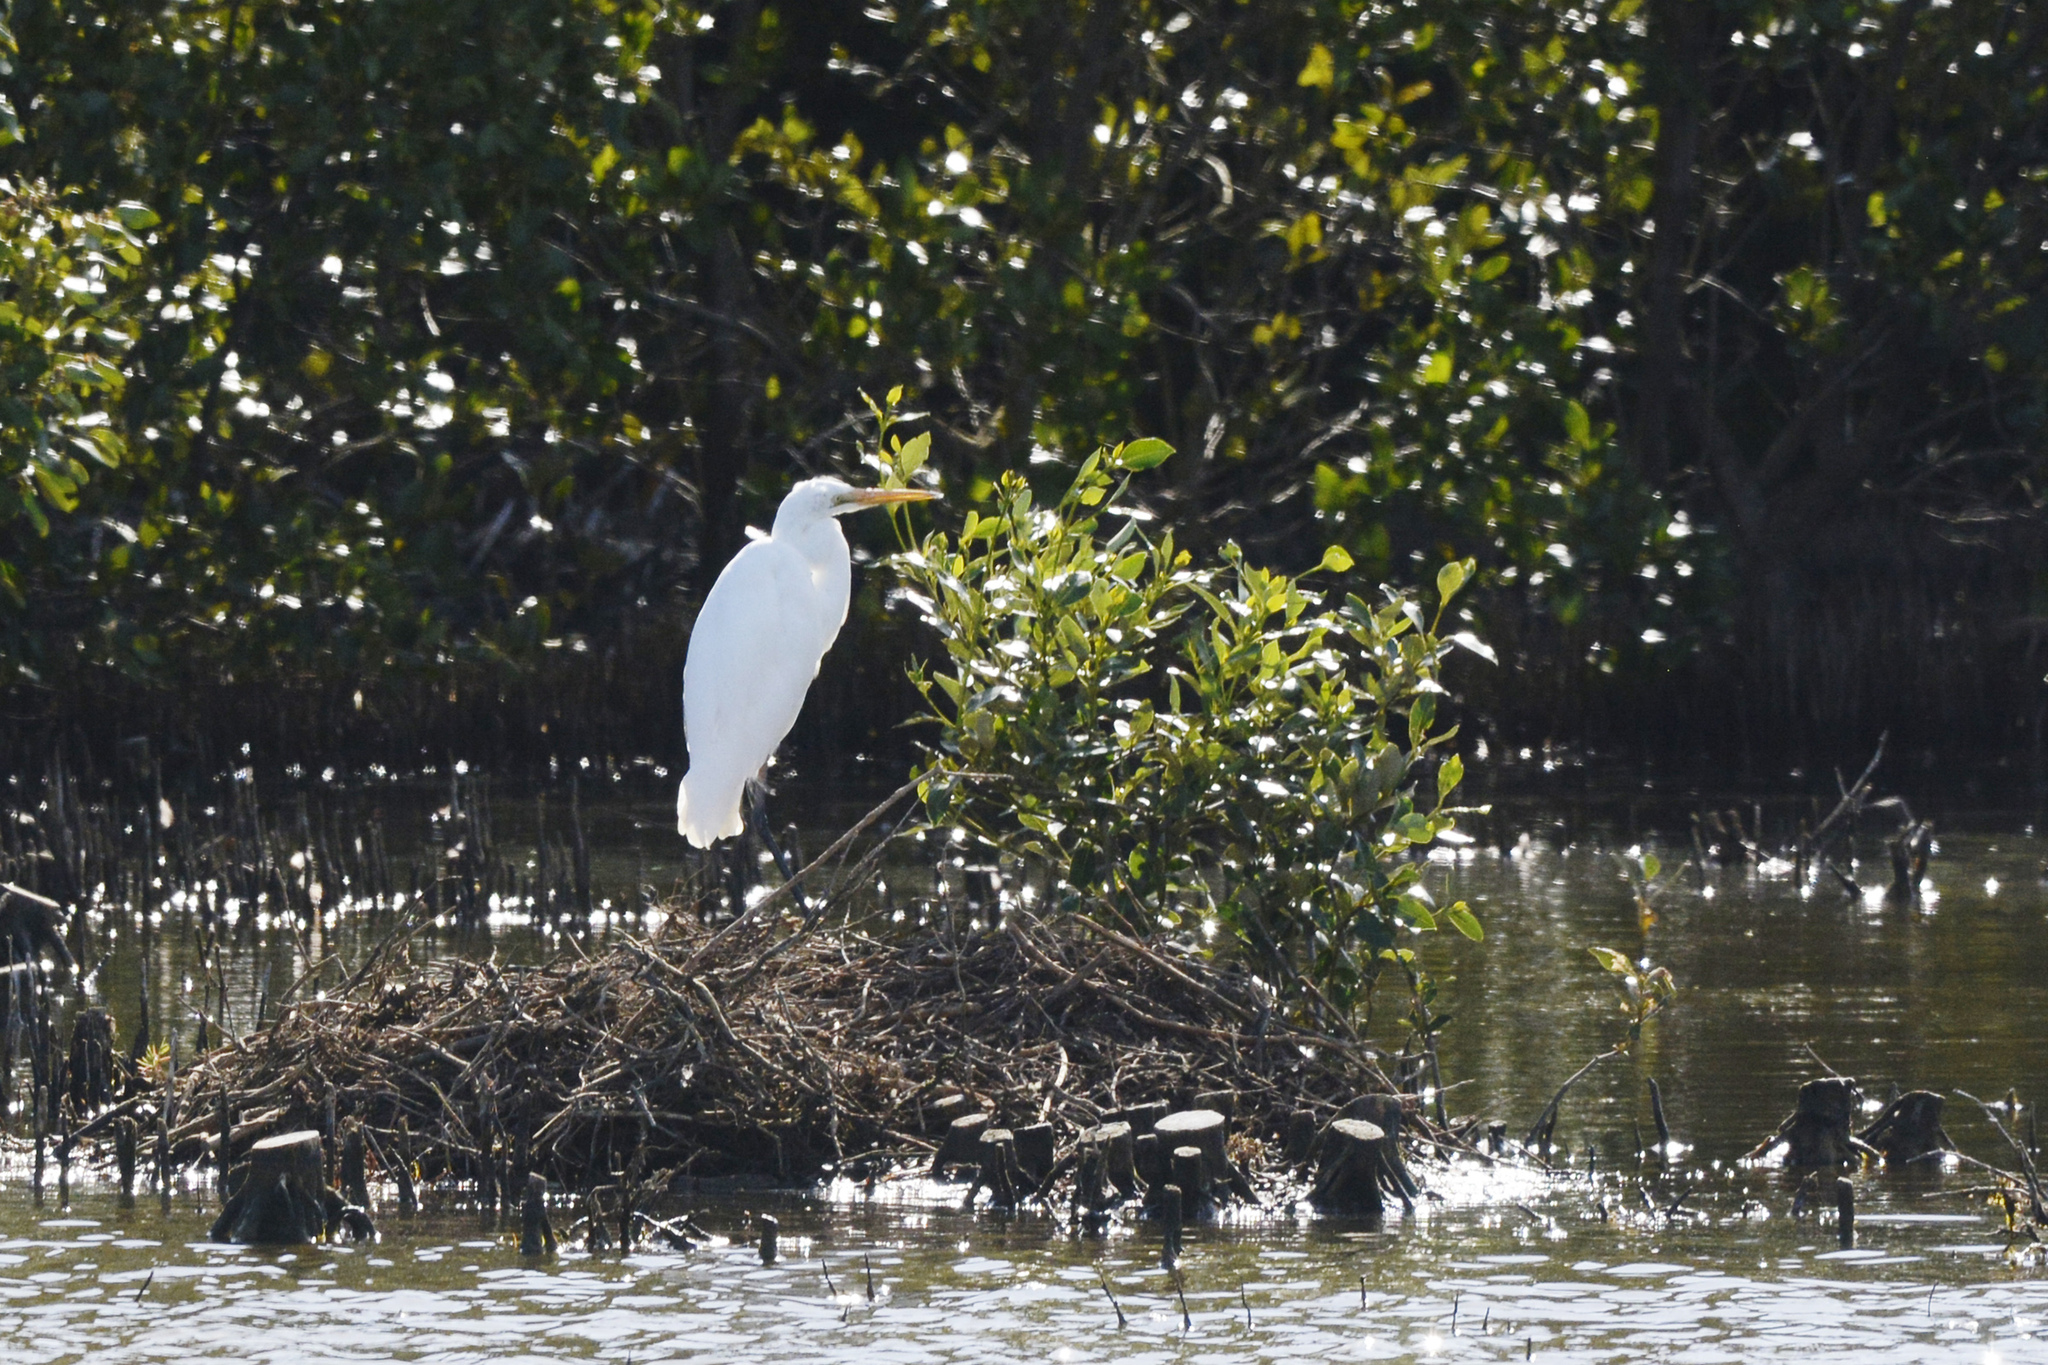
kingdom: Animalia
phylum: Chordata
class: Aves
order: Pelecaniformes
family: Ardeidae
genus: Ardea
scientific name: Ardea alba
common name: Great egret
